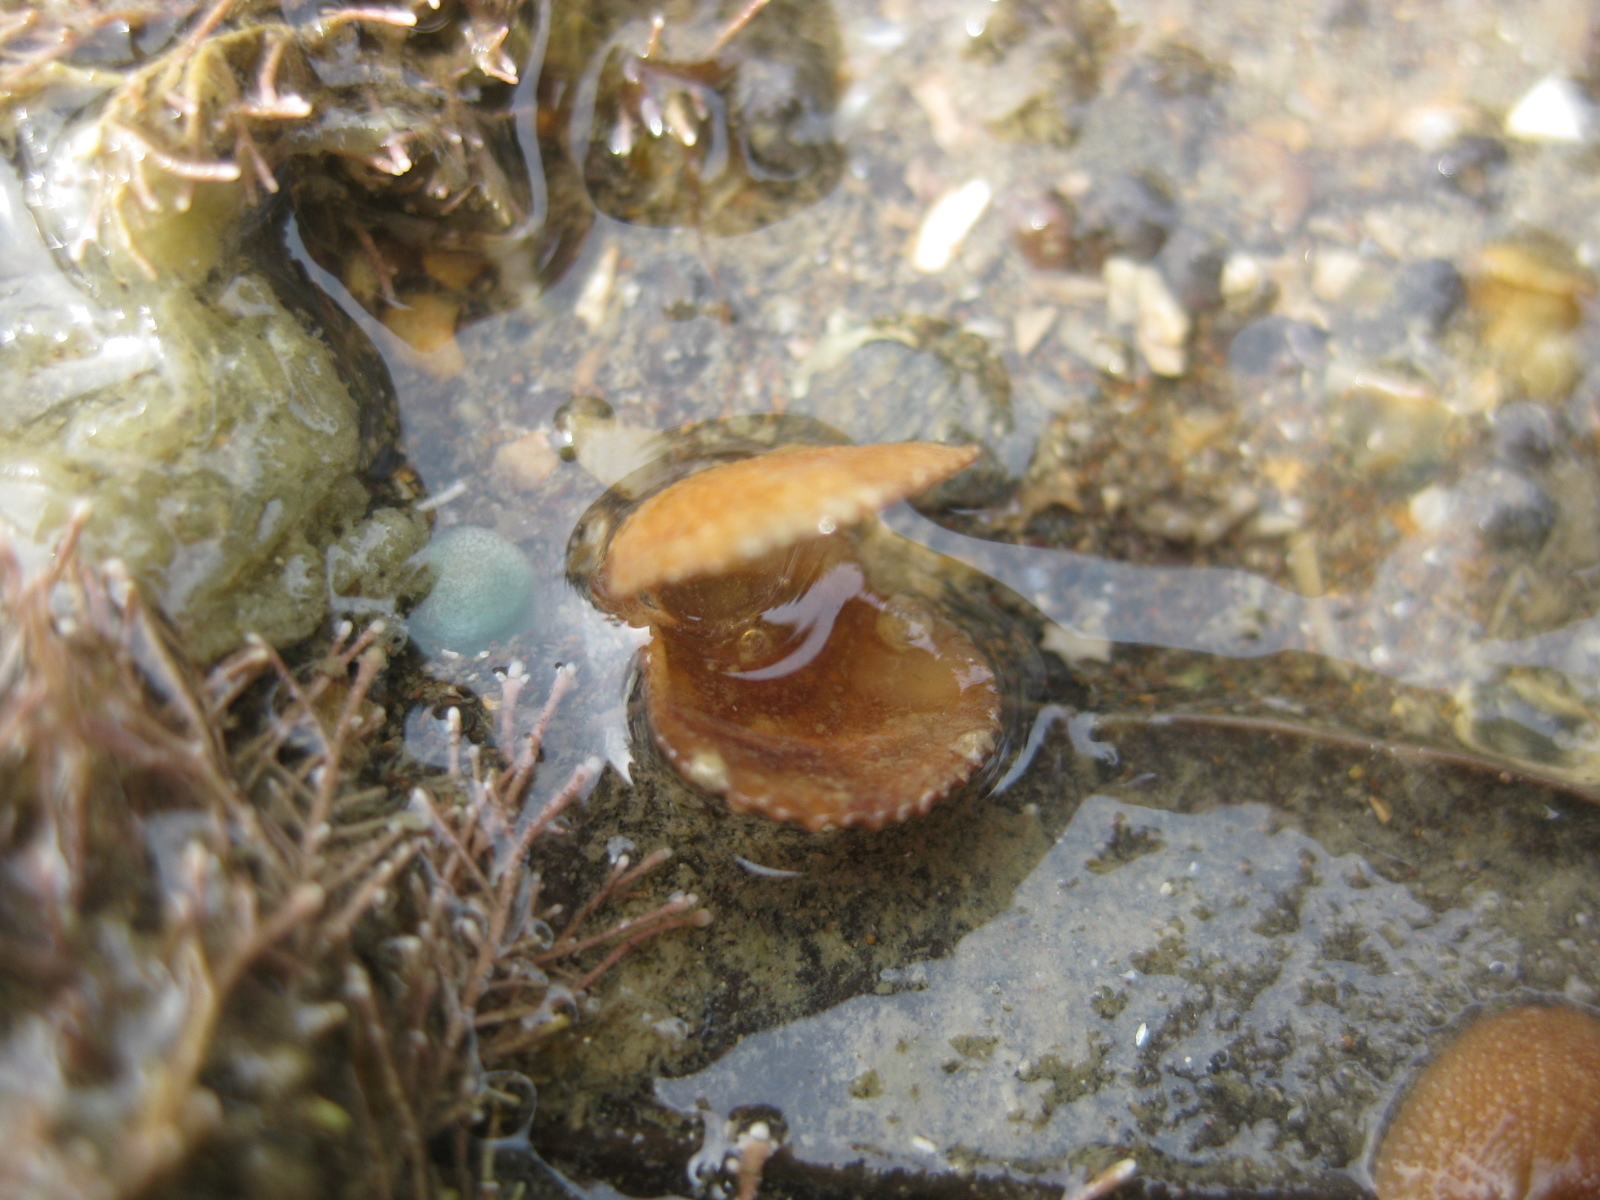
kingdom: Animalia
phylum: Mollusca
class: Bivalvia
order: Pectinida
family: Pectinidae
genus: Talochlamys
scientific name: Talochlamys zelandiae
